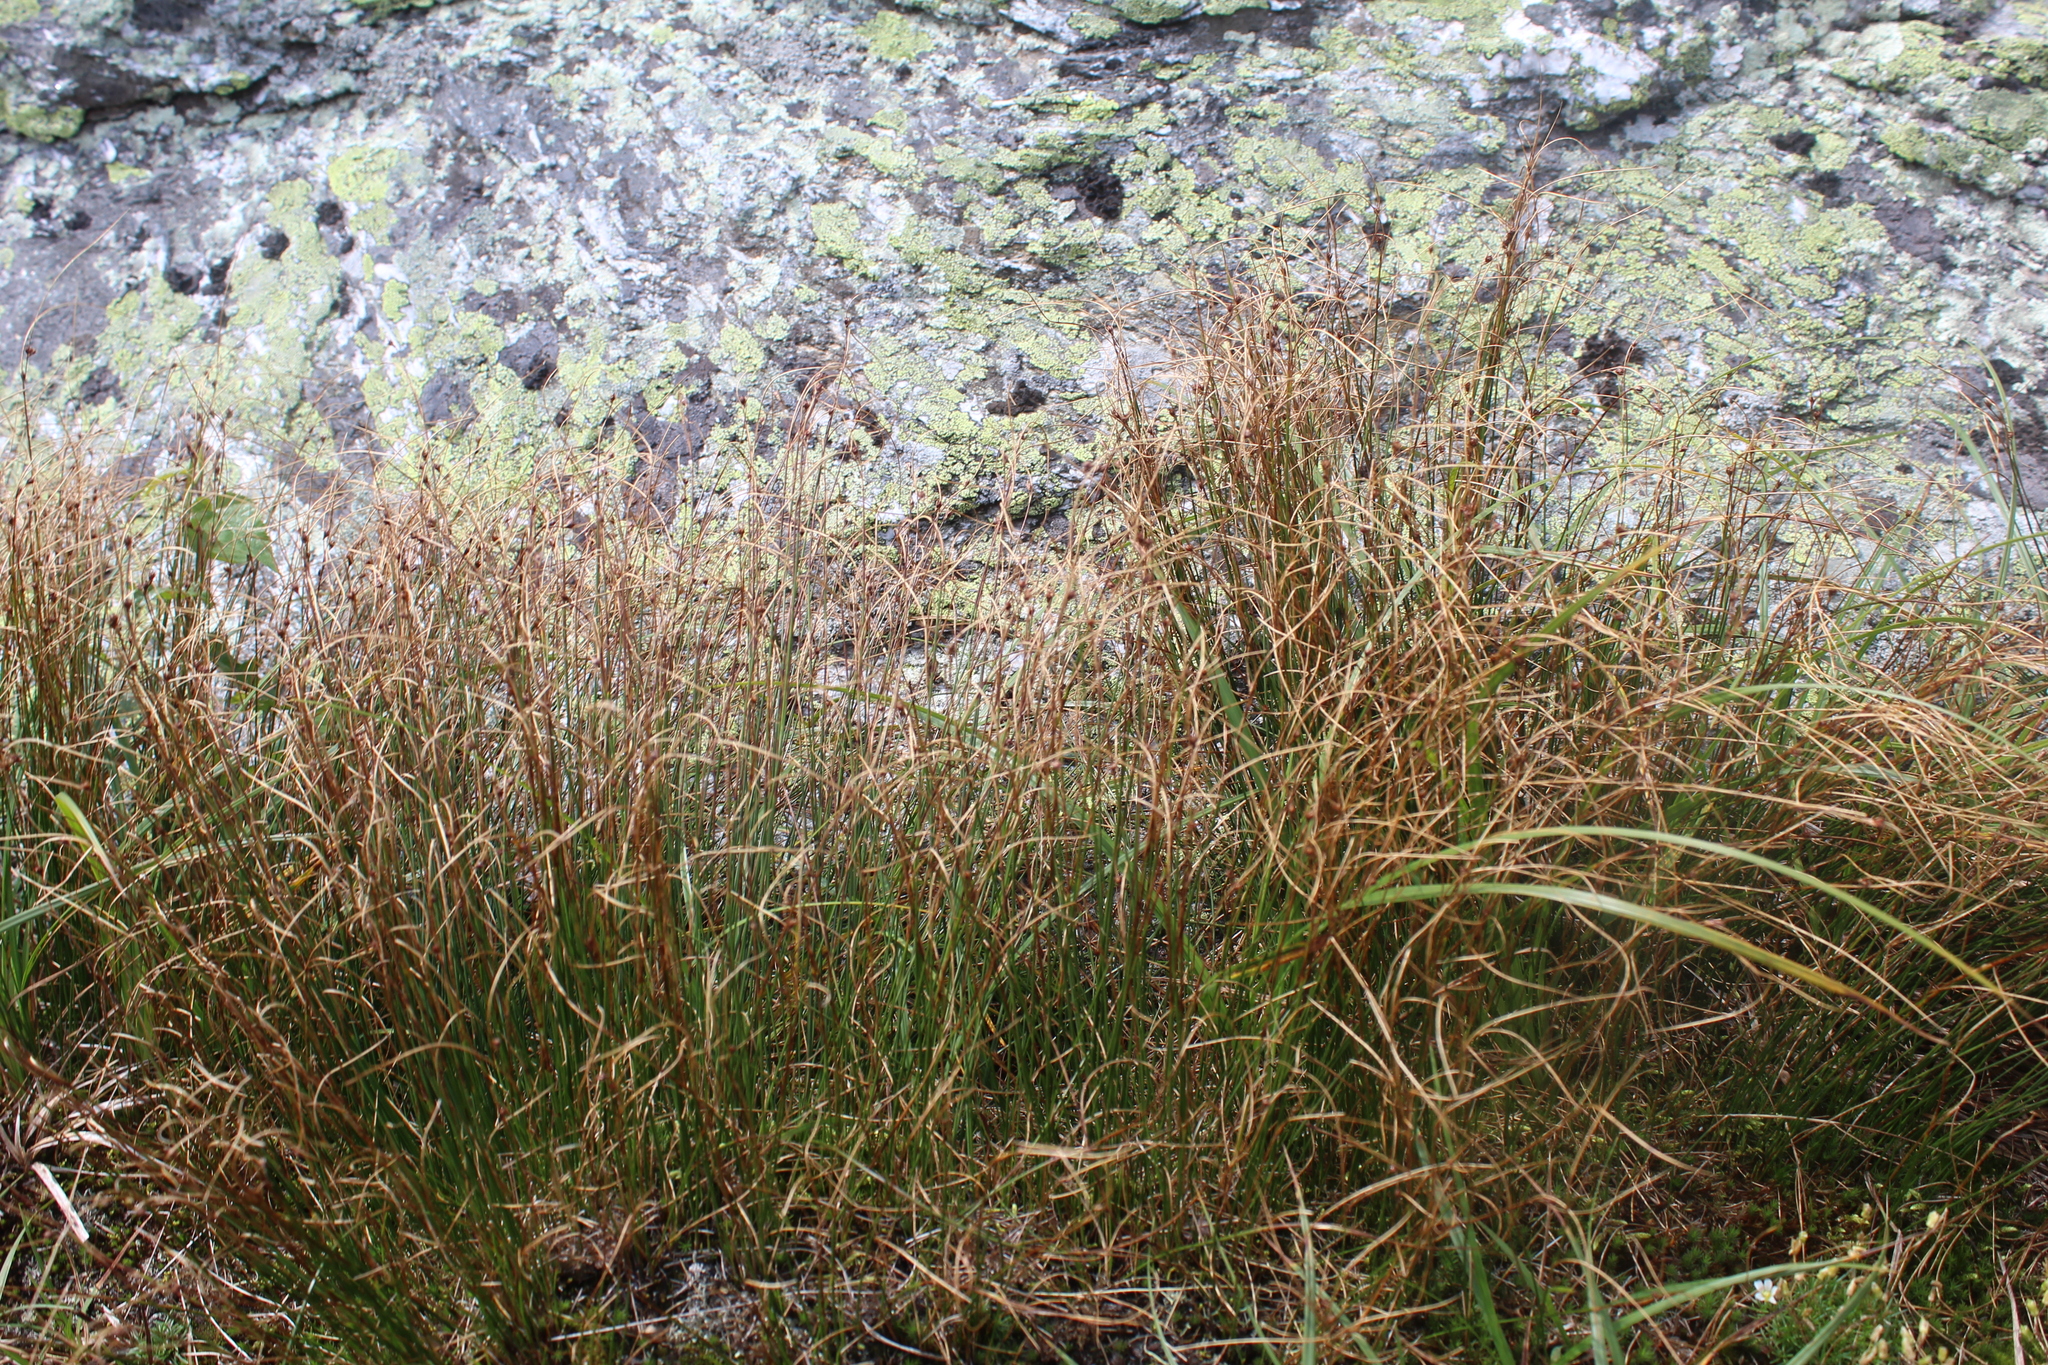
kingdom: Plantae
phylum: Tracheophyta
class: Liliopsida
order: Poales
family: Juncaceae
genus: Oreojuncus
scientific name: Oreojuncus trifidus
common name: Highland rush
